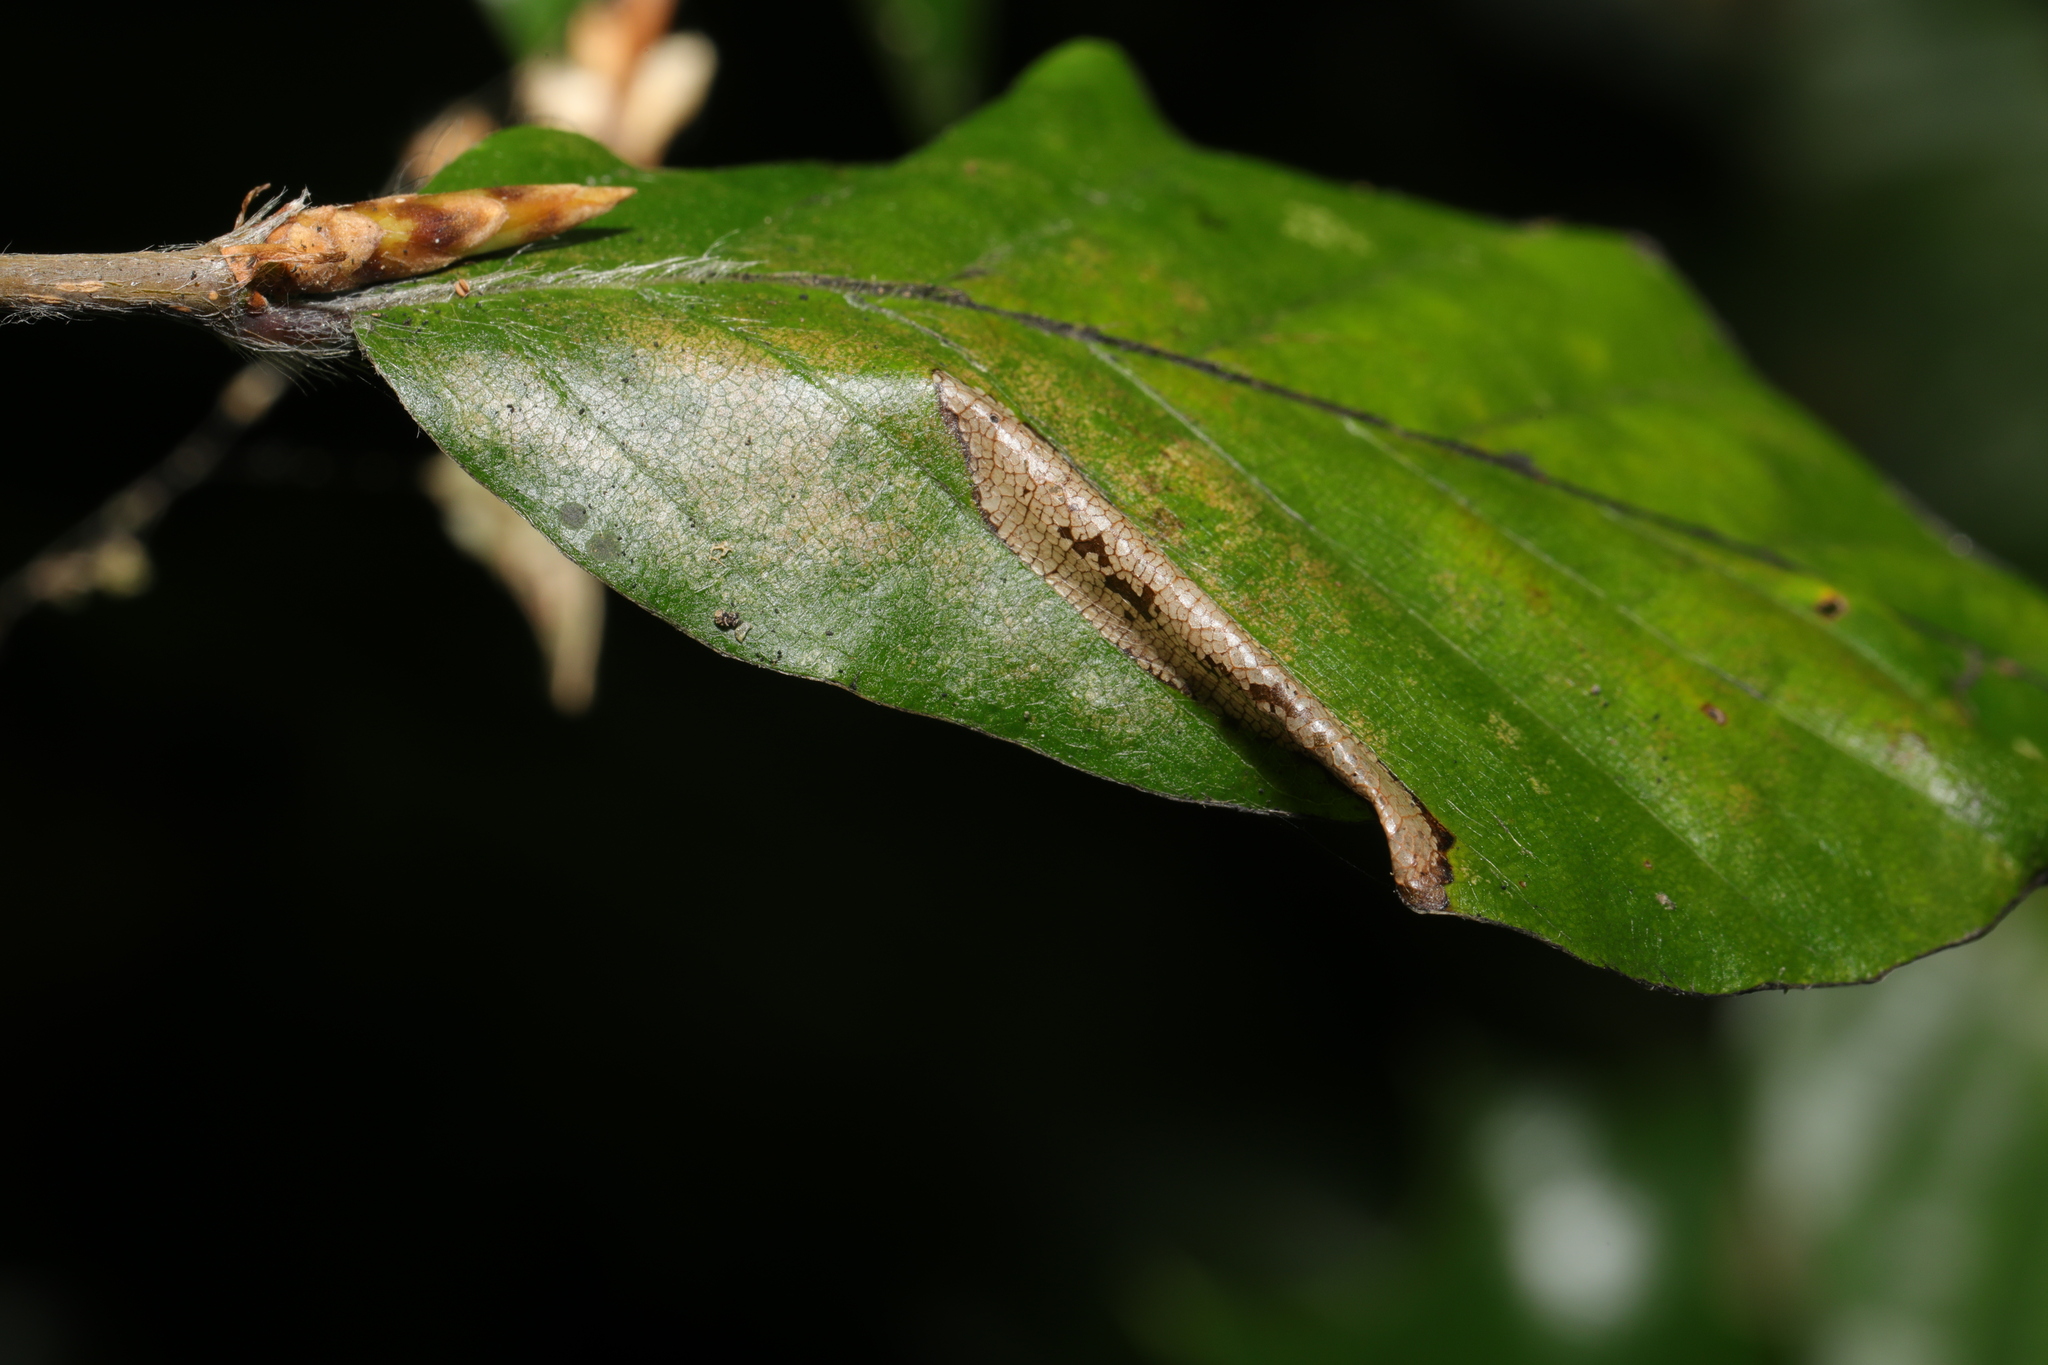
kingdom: Animalia
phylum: Arthropoda
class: Insecta
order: Lepidoptera
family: Gracillariidae
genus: Phyllonorycter
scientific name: Phyllonorycter maestingella
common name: Beech midget
